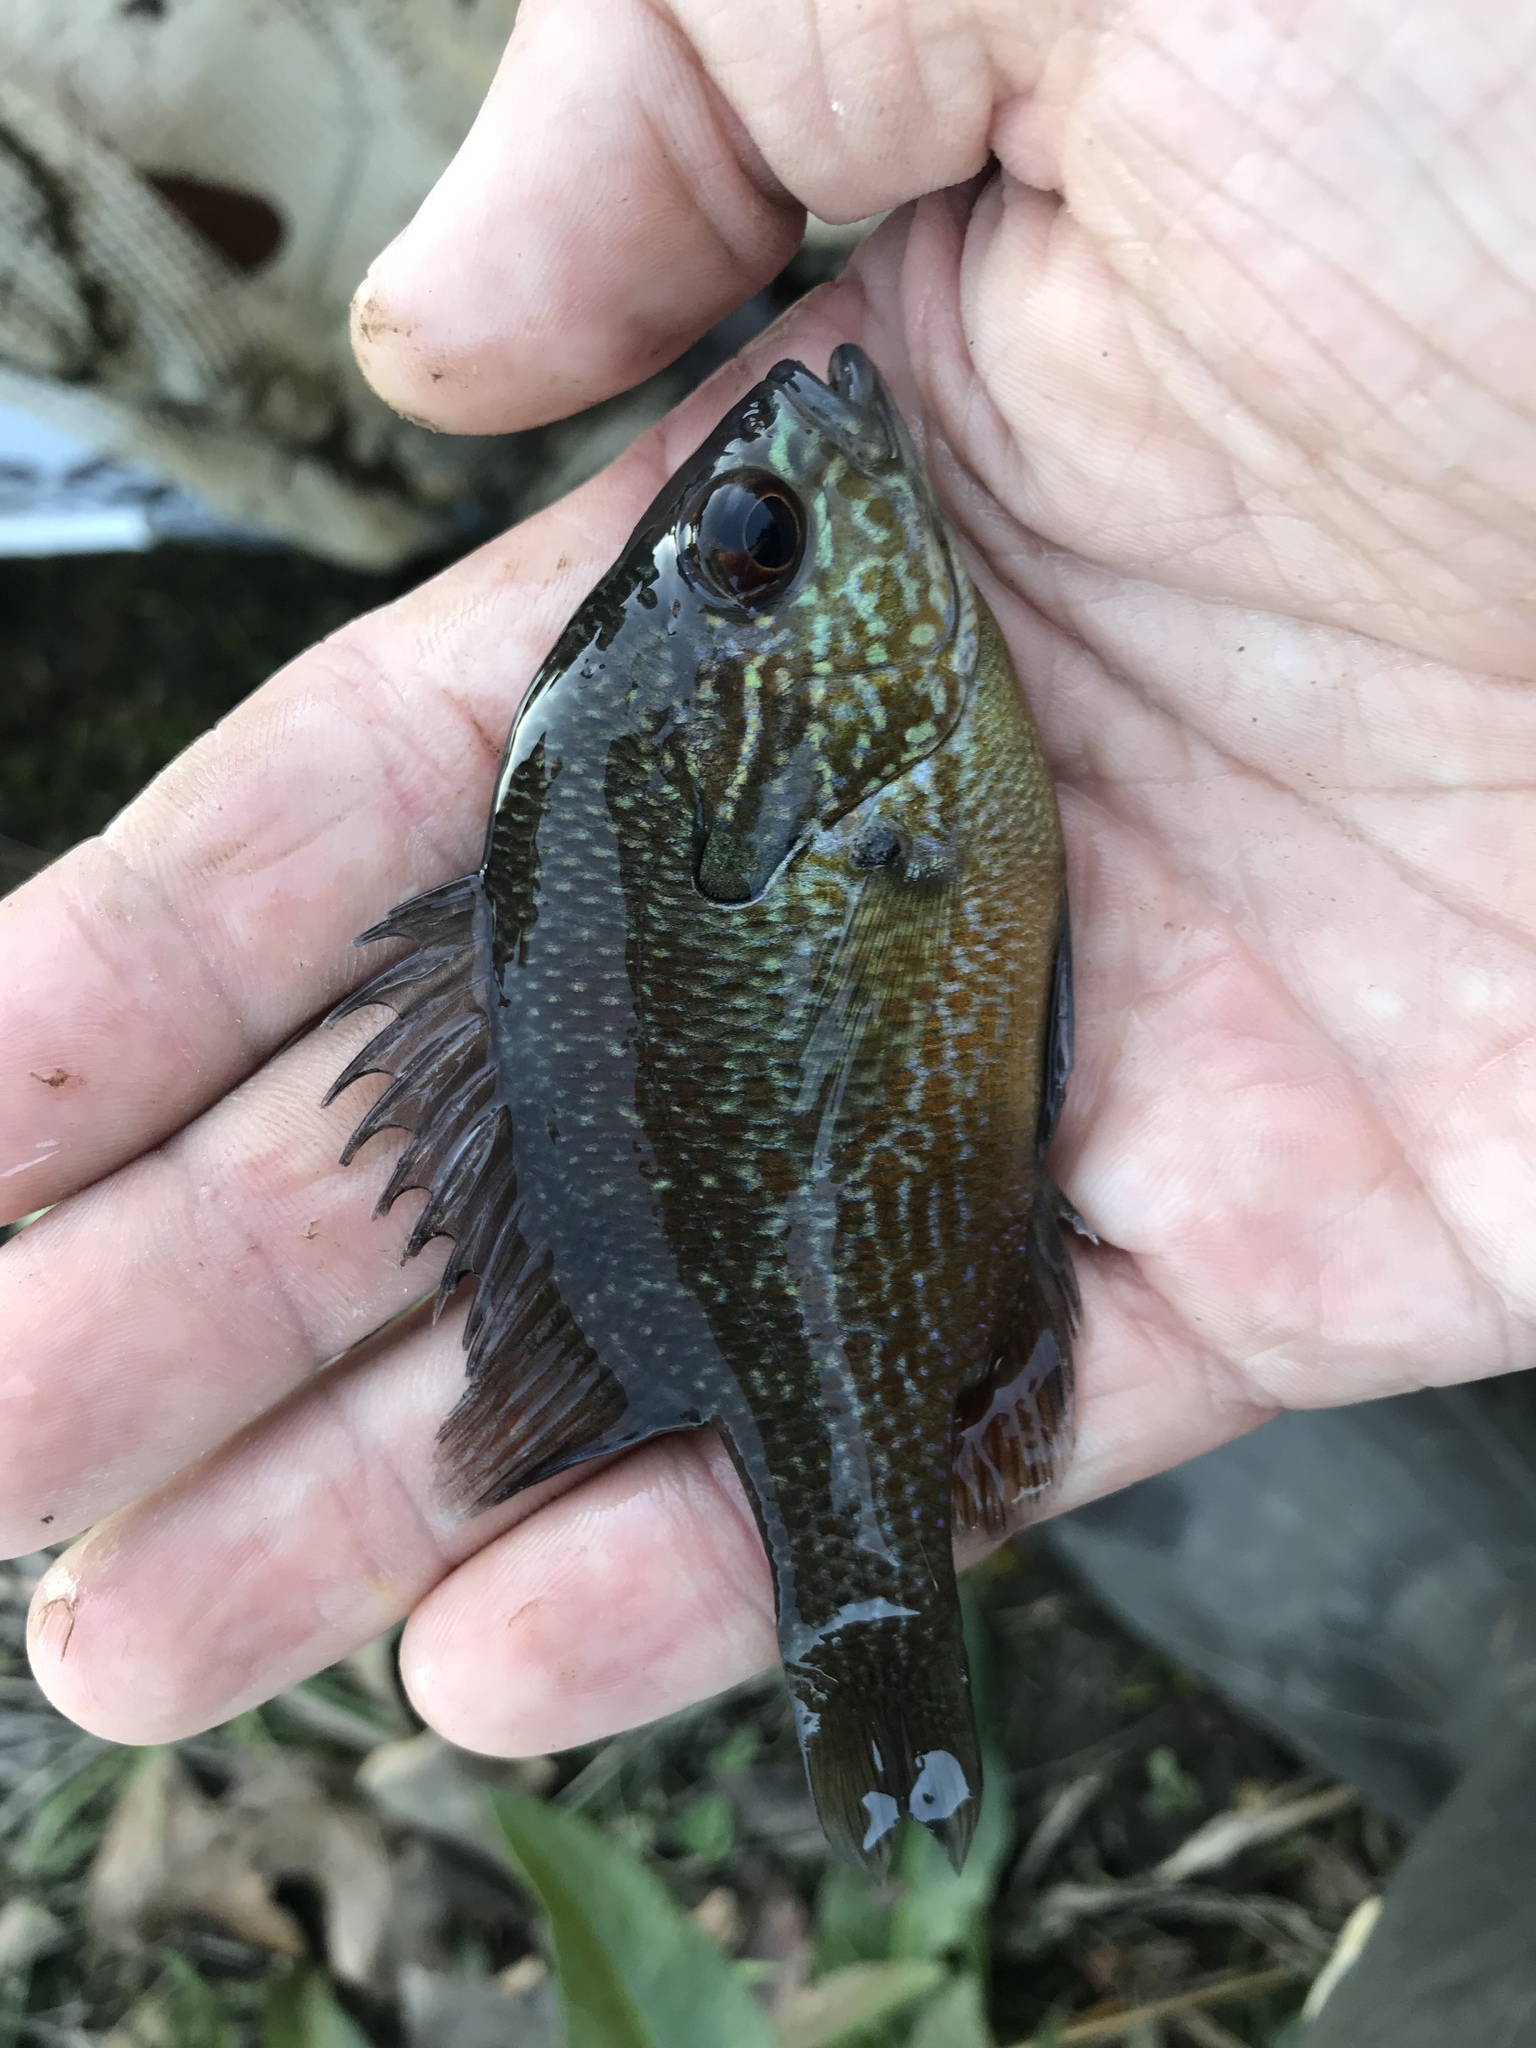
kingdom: Animalia
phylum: Chordata
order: Perciformes
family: Centrarchidae
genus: Lepomis
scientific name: Lepomis aquilensis
